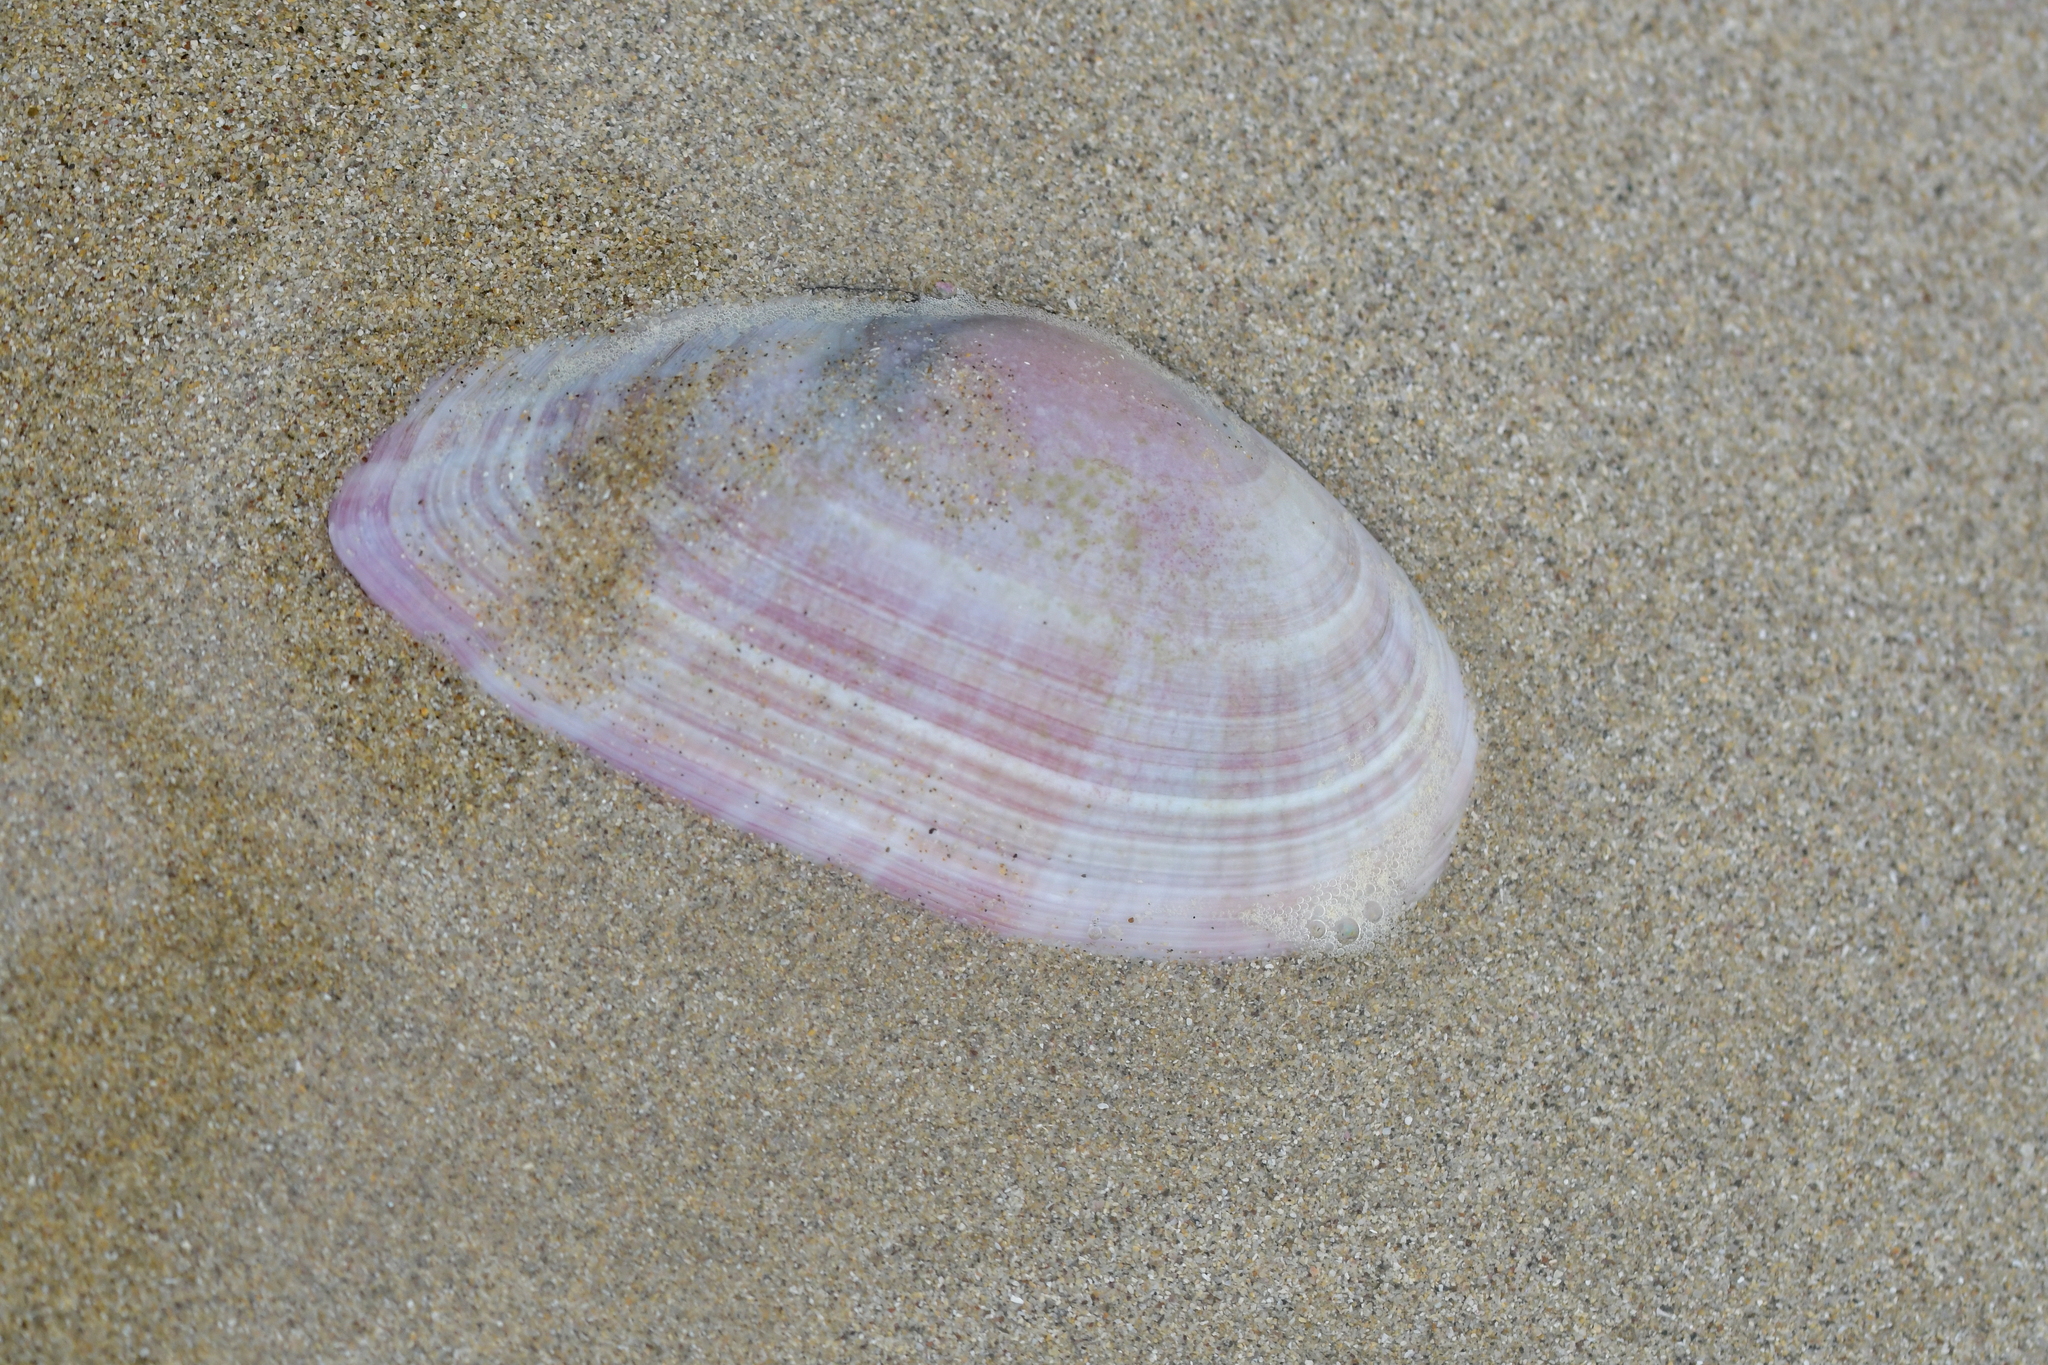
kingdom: Animalia
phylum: Mollusca
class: Bivalvia
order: Cardiida
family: Psammobiidae
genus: Gari
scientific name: Gari convexa
